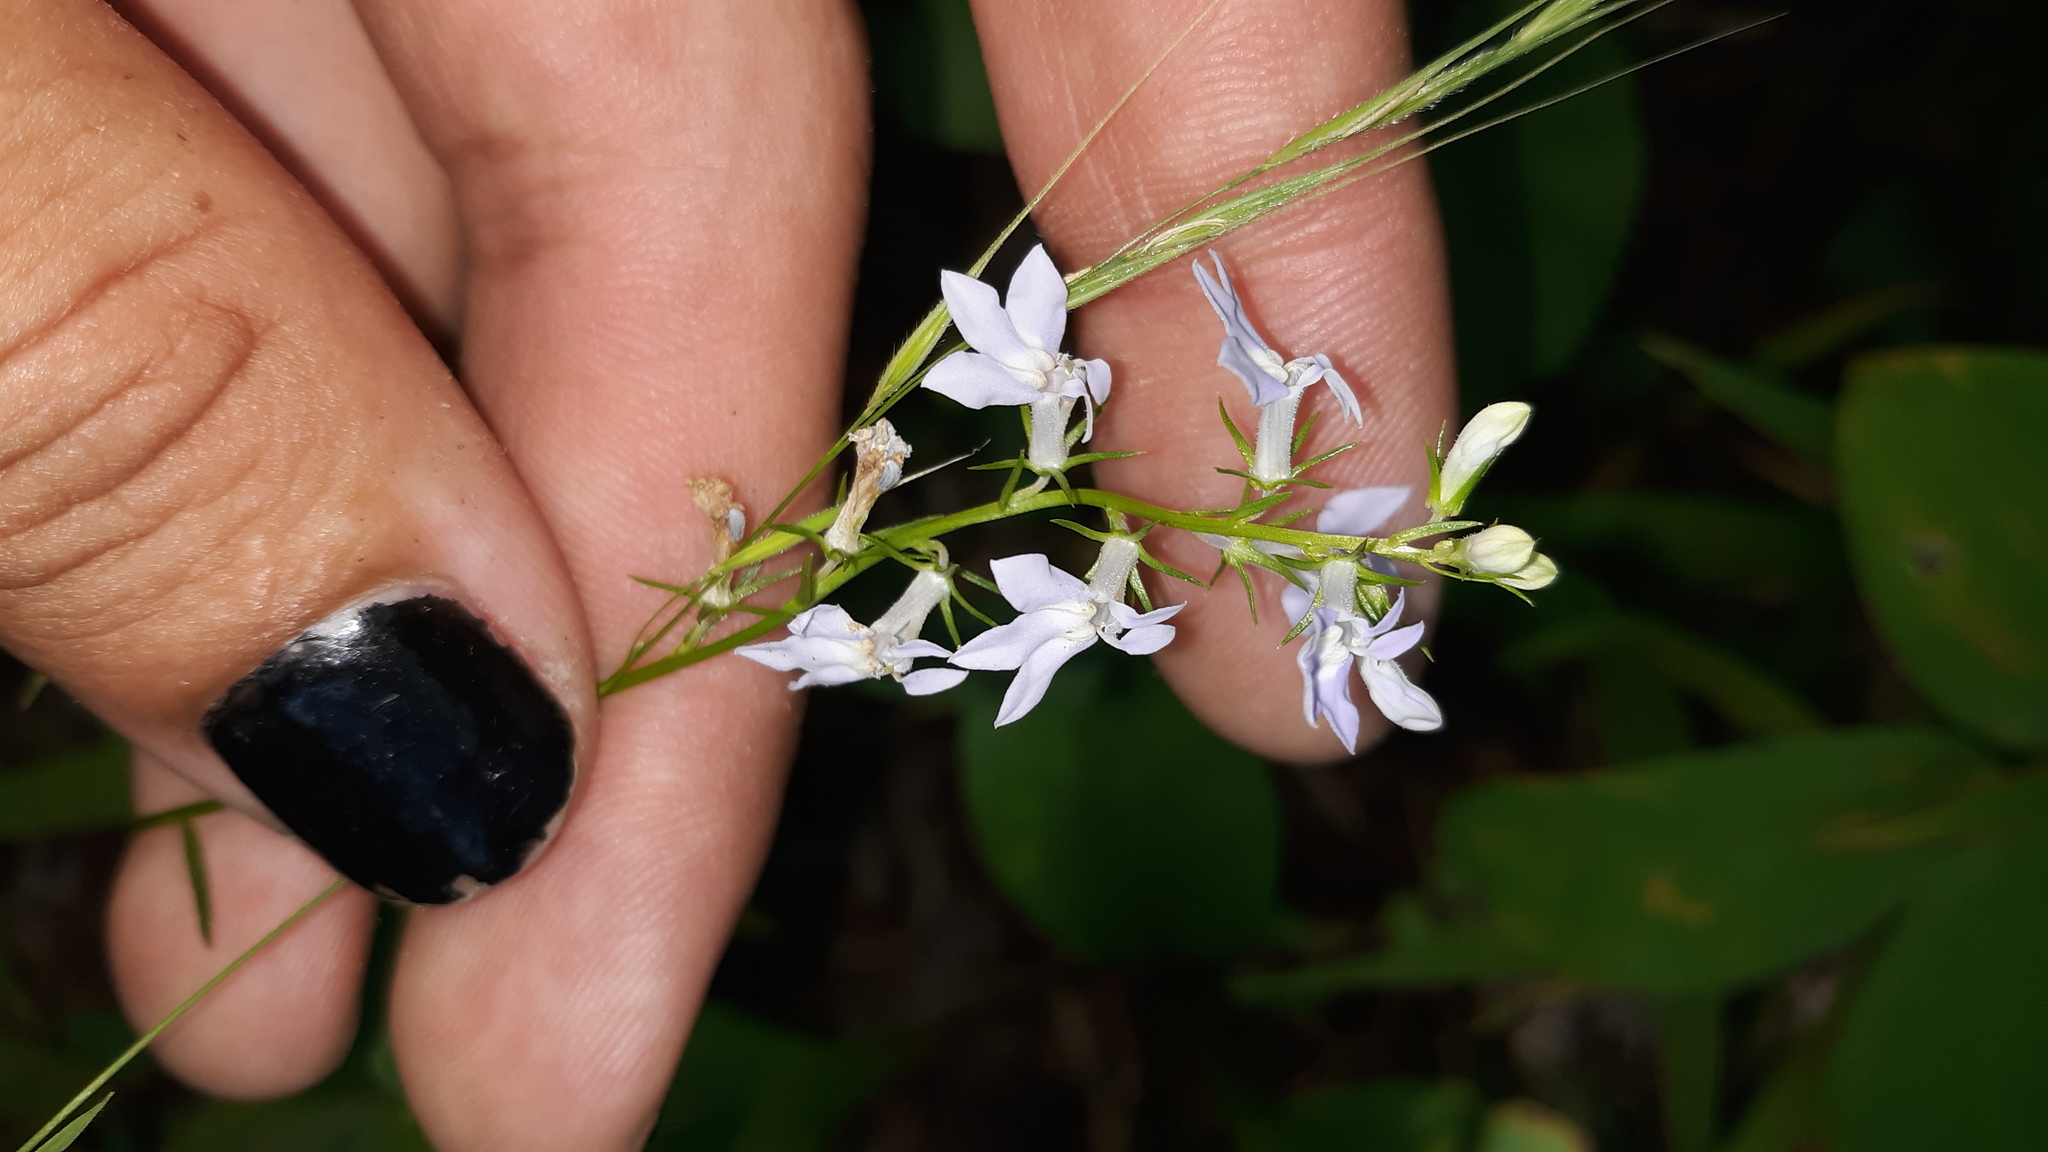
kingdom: Plantae
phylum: Tracheophyta
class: Magnoliopsida
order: Asterales
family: Campanulaceae
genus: Lobelia
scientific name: Lobelia spicata
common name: Pale-spike lobelia
